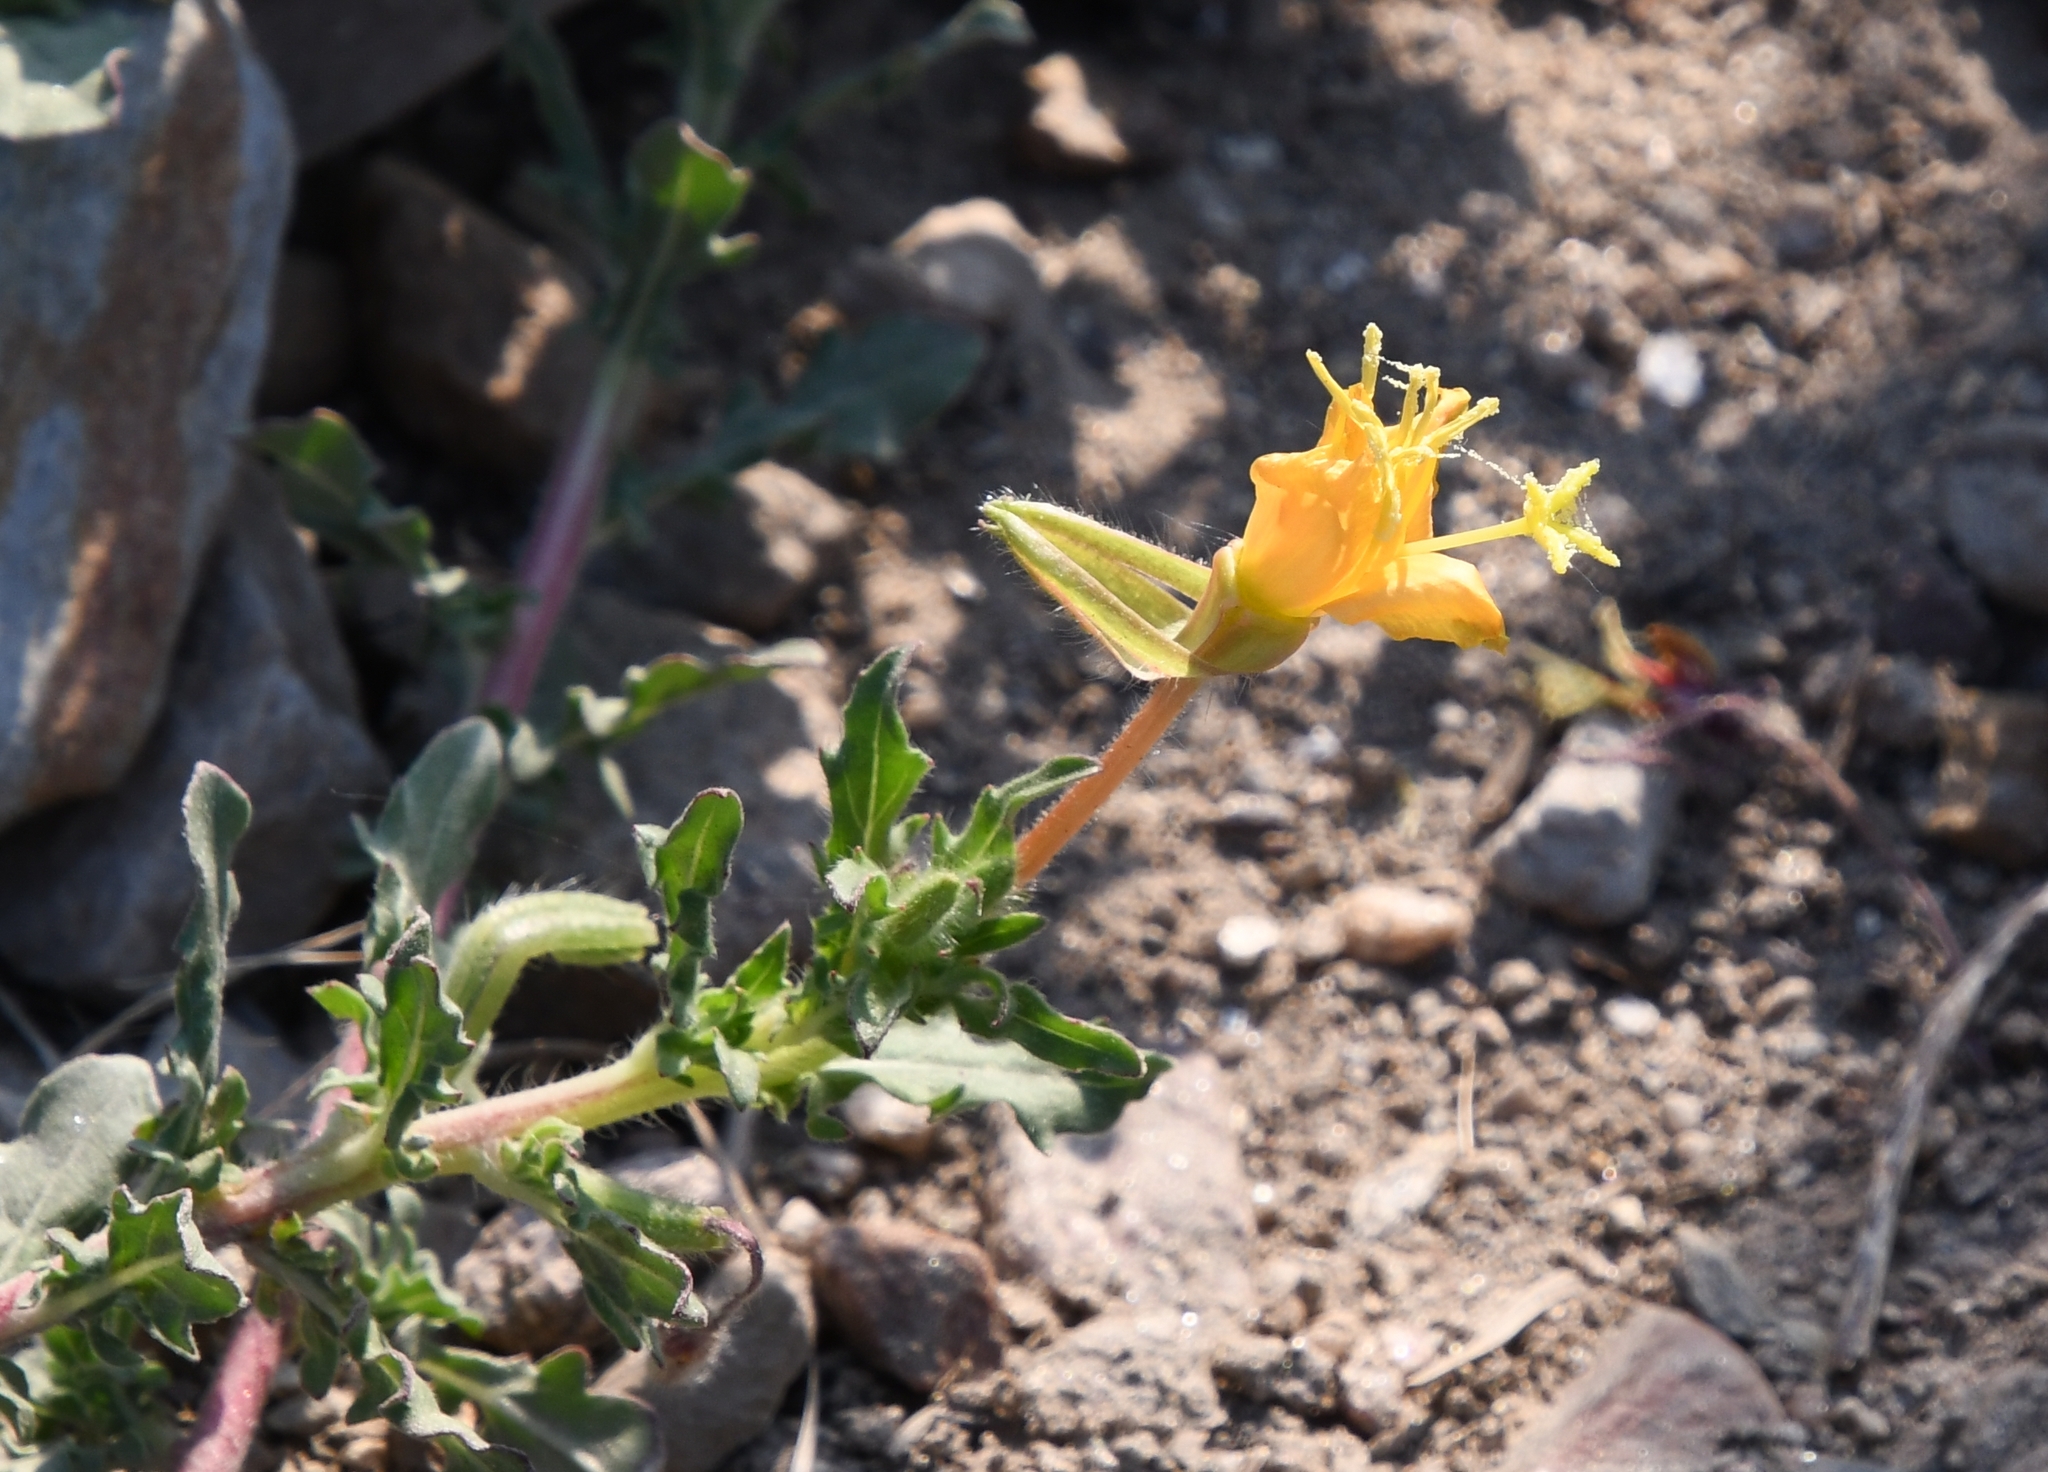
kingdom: Plantae
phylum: Tracheophyta
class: Magnoliopsida
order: Myrtales
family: Onagraceae
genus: Oenothera
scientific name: Oenothera pubescens
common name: South american evening-primrose
